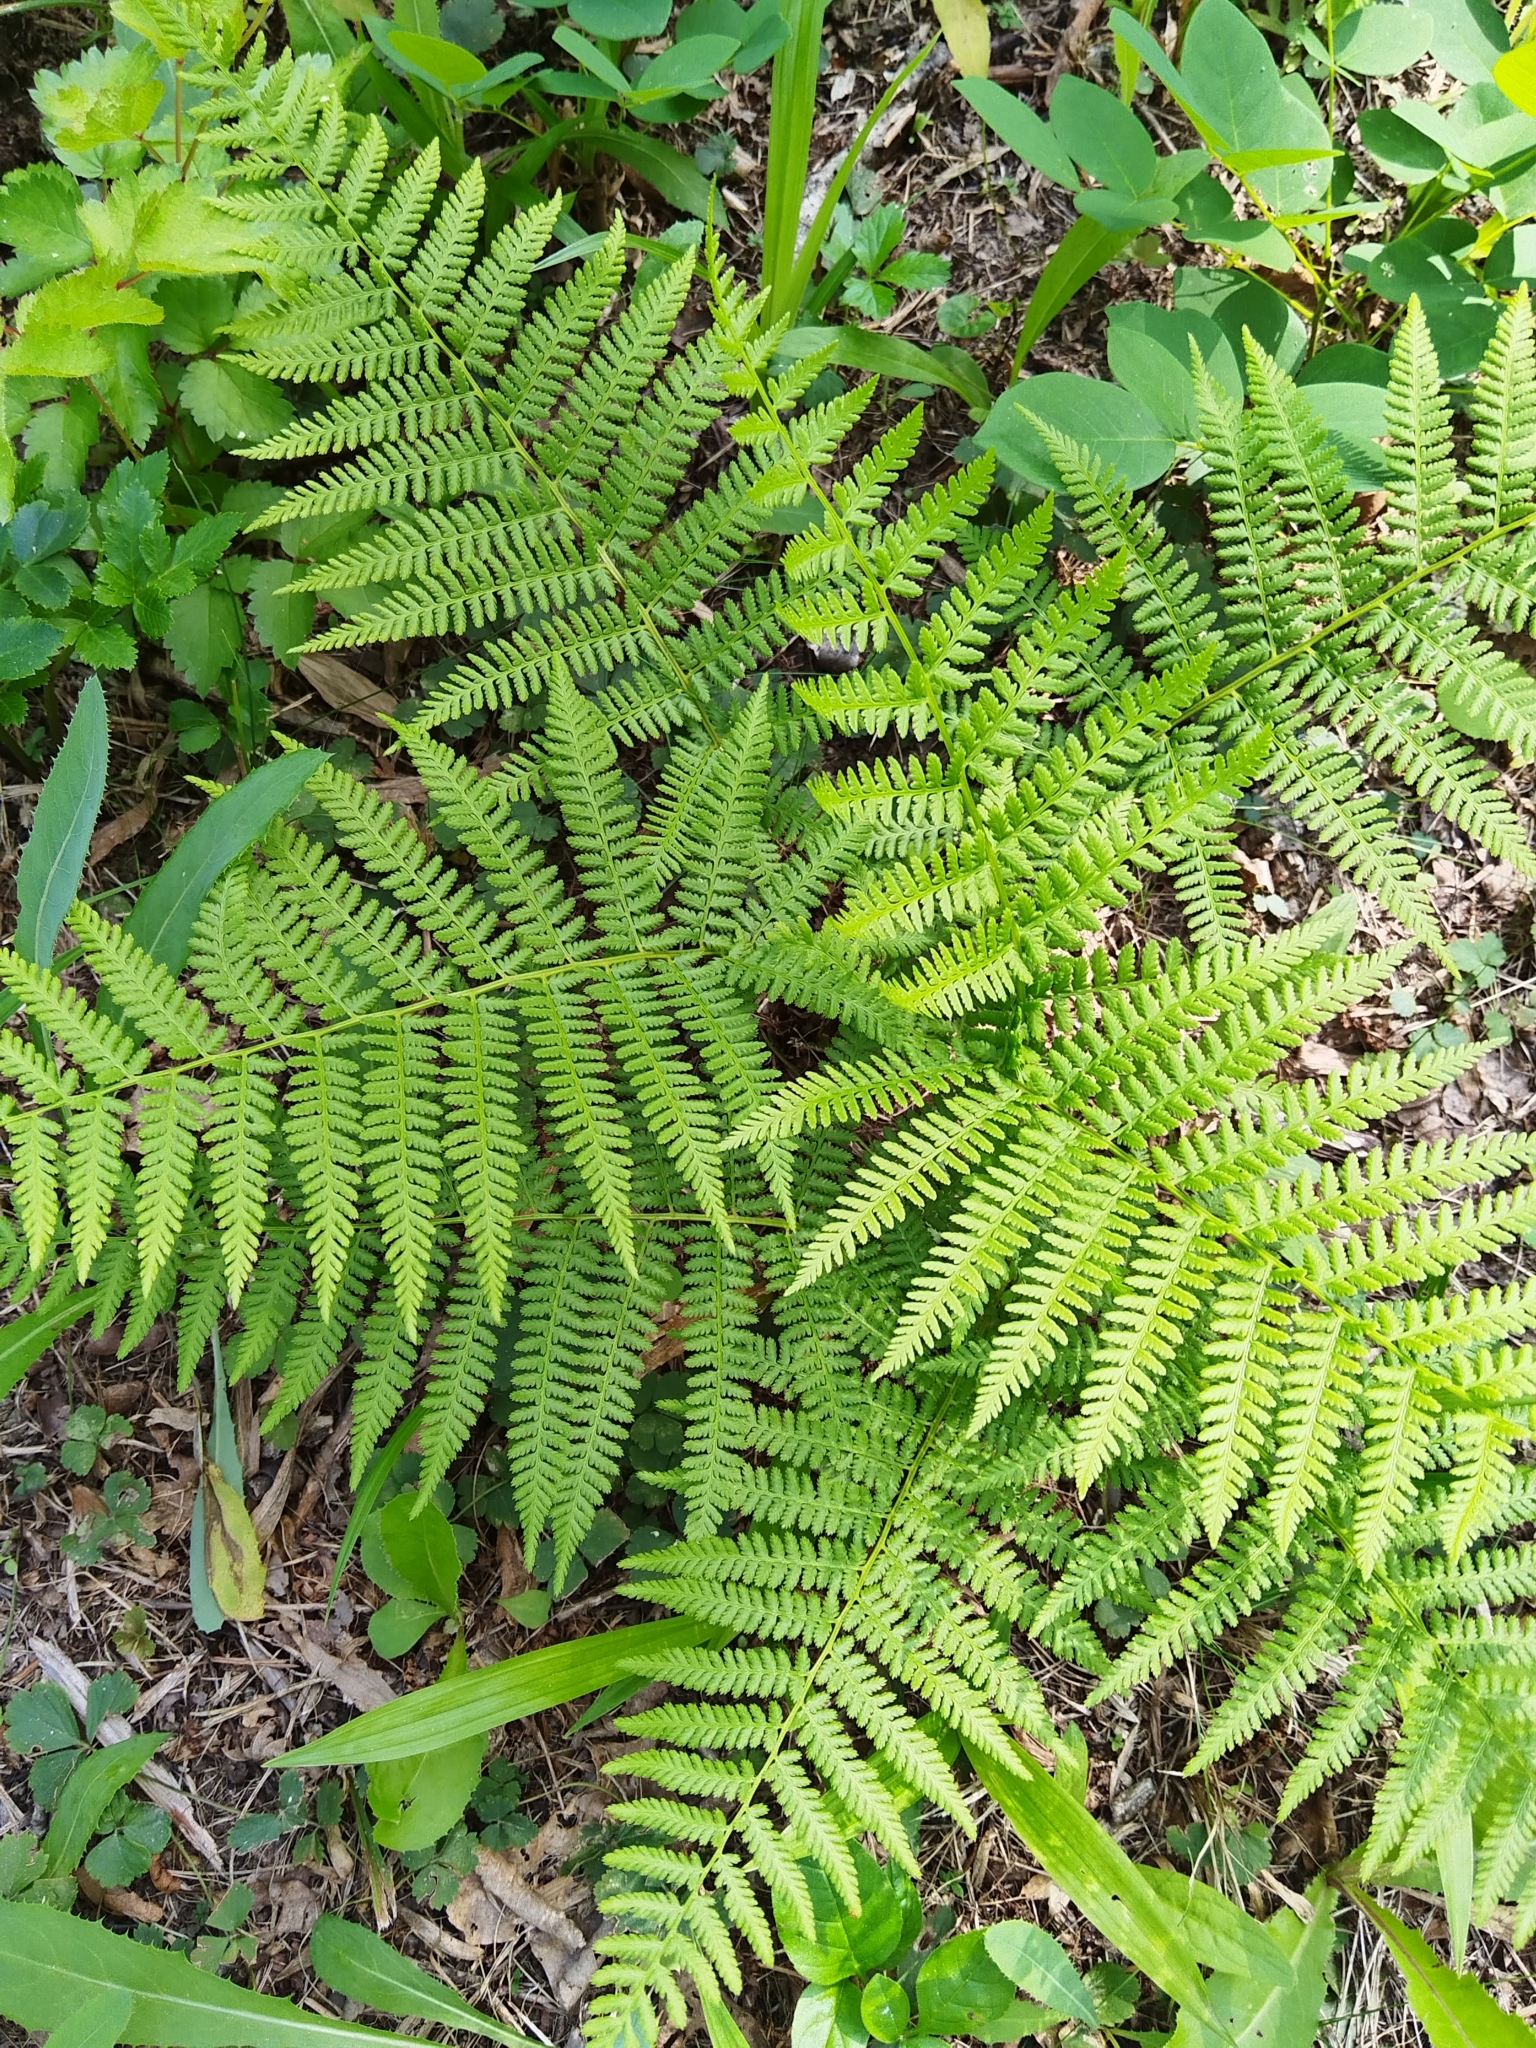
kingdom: Plantae
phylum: Tracheophyta
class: Polypodiopsida
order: Polypodiales
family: Athyriaceae
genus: Athyrium
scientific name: Athyrium filix-femina
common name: Lady fern
